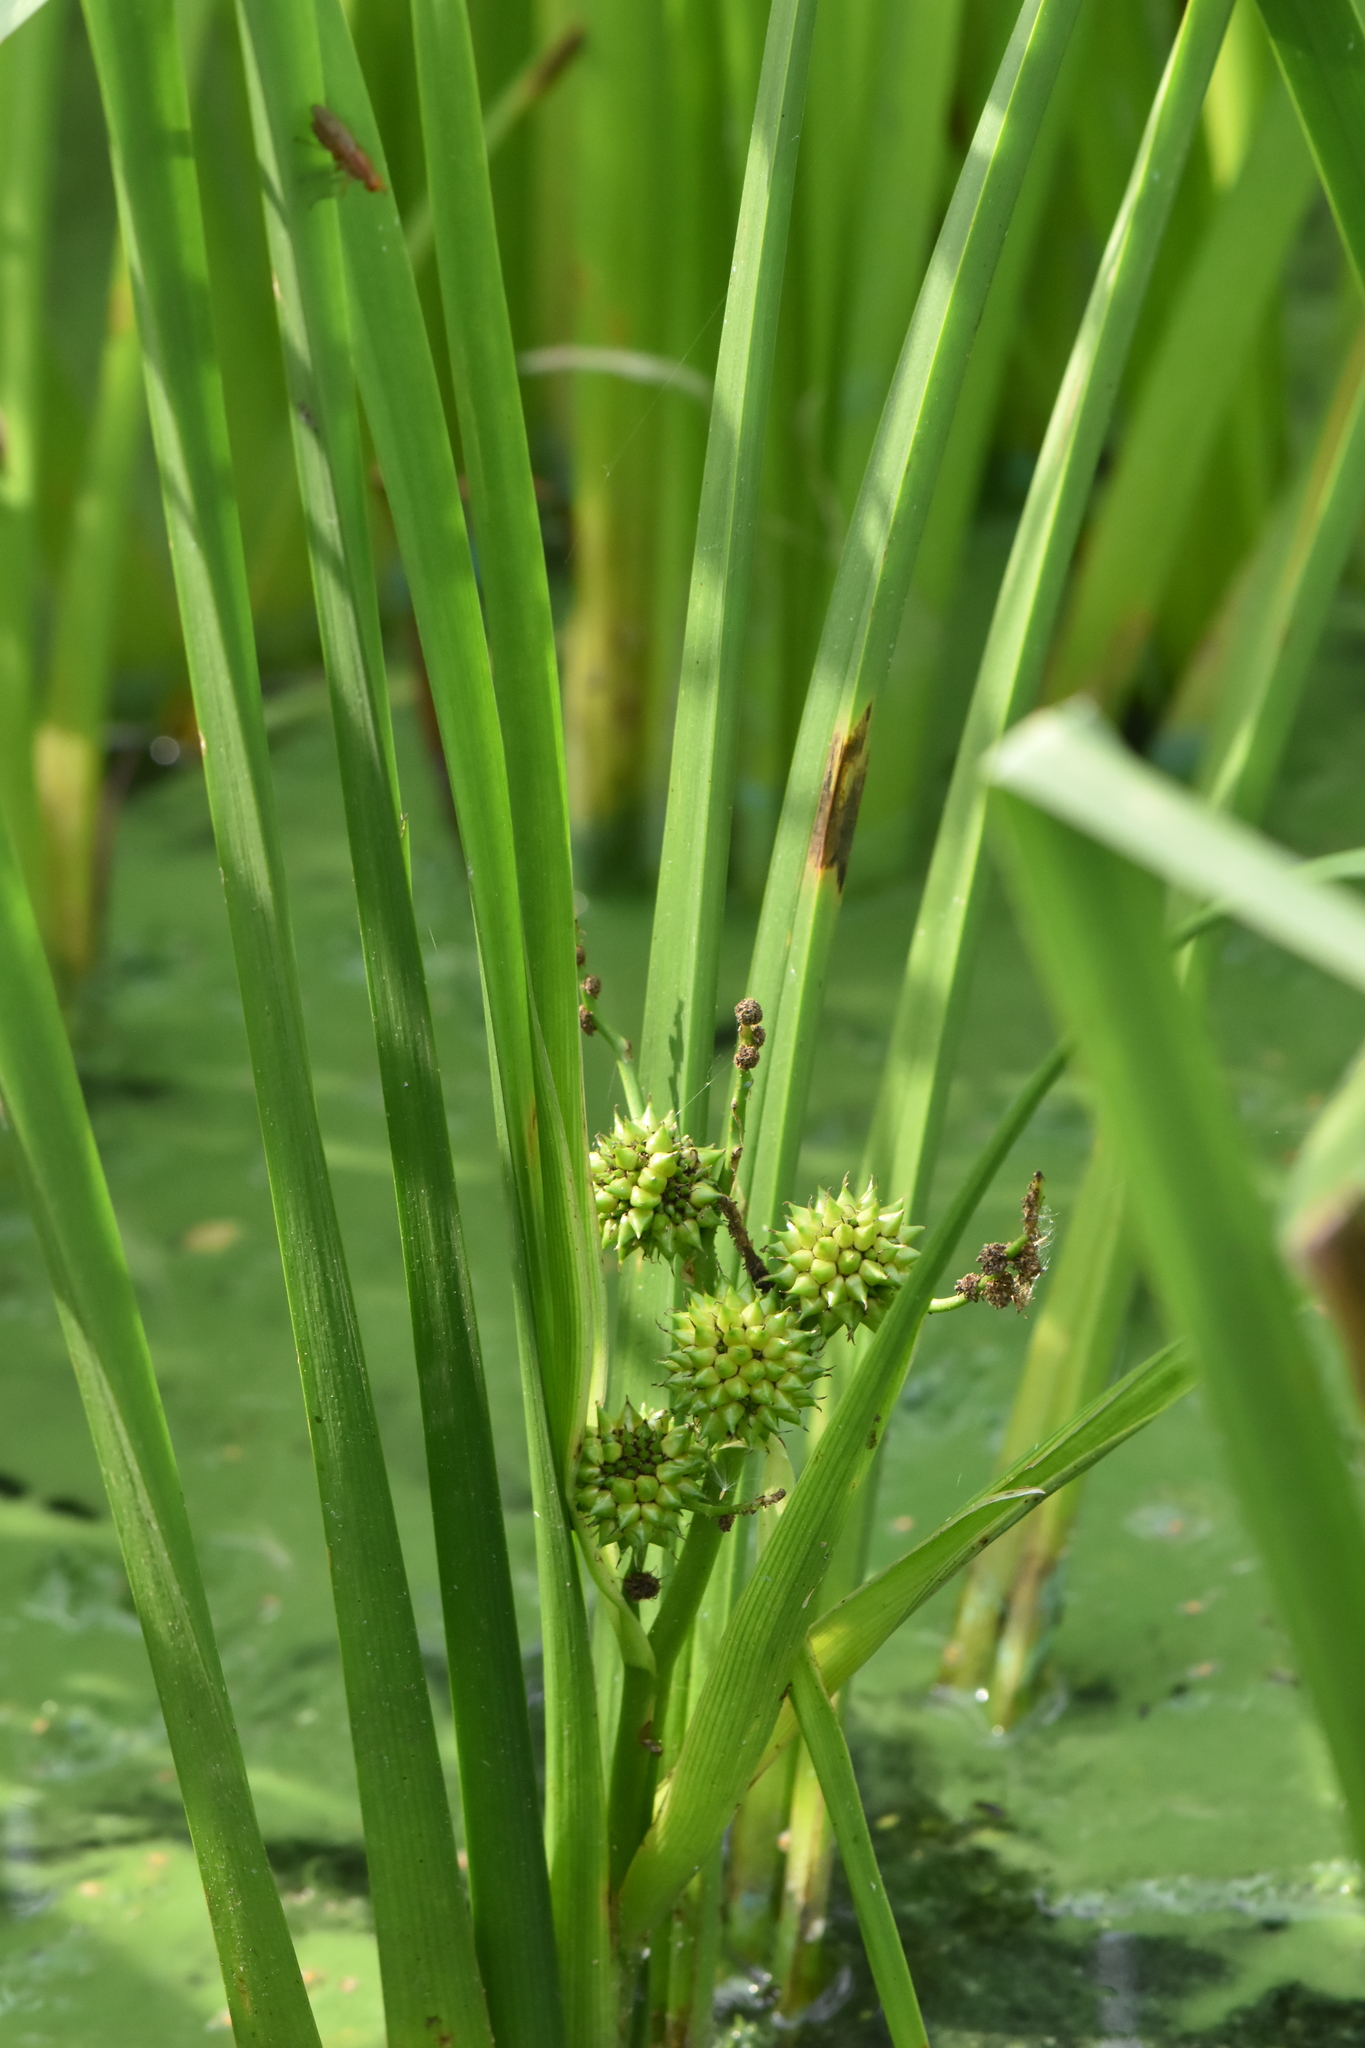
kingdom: Plantae
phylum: Tracheophyta
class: Liliopsida
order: Poales
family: Typhaceae
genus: Sparganium
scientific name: Sparganium erectum
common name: Branched bur-reed
